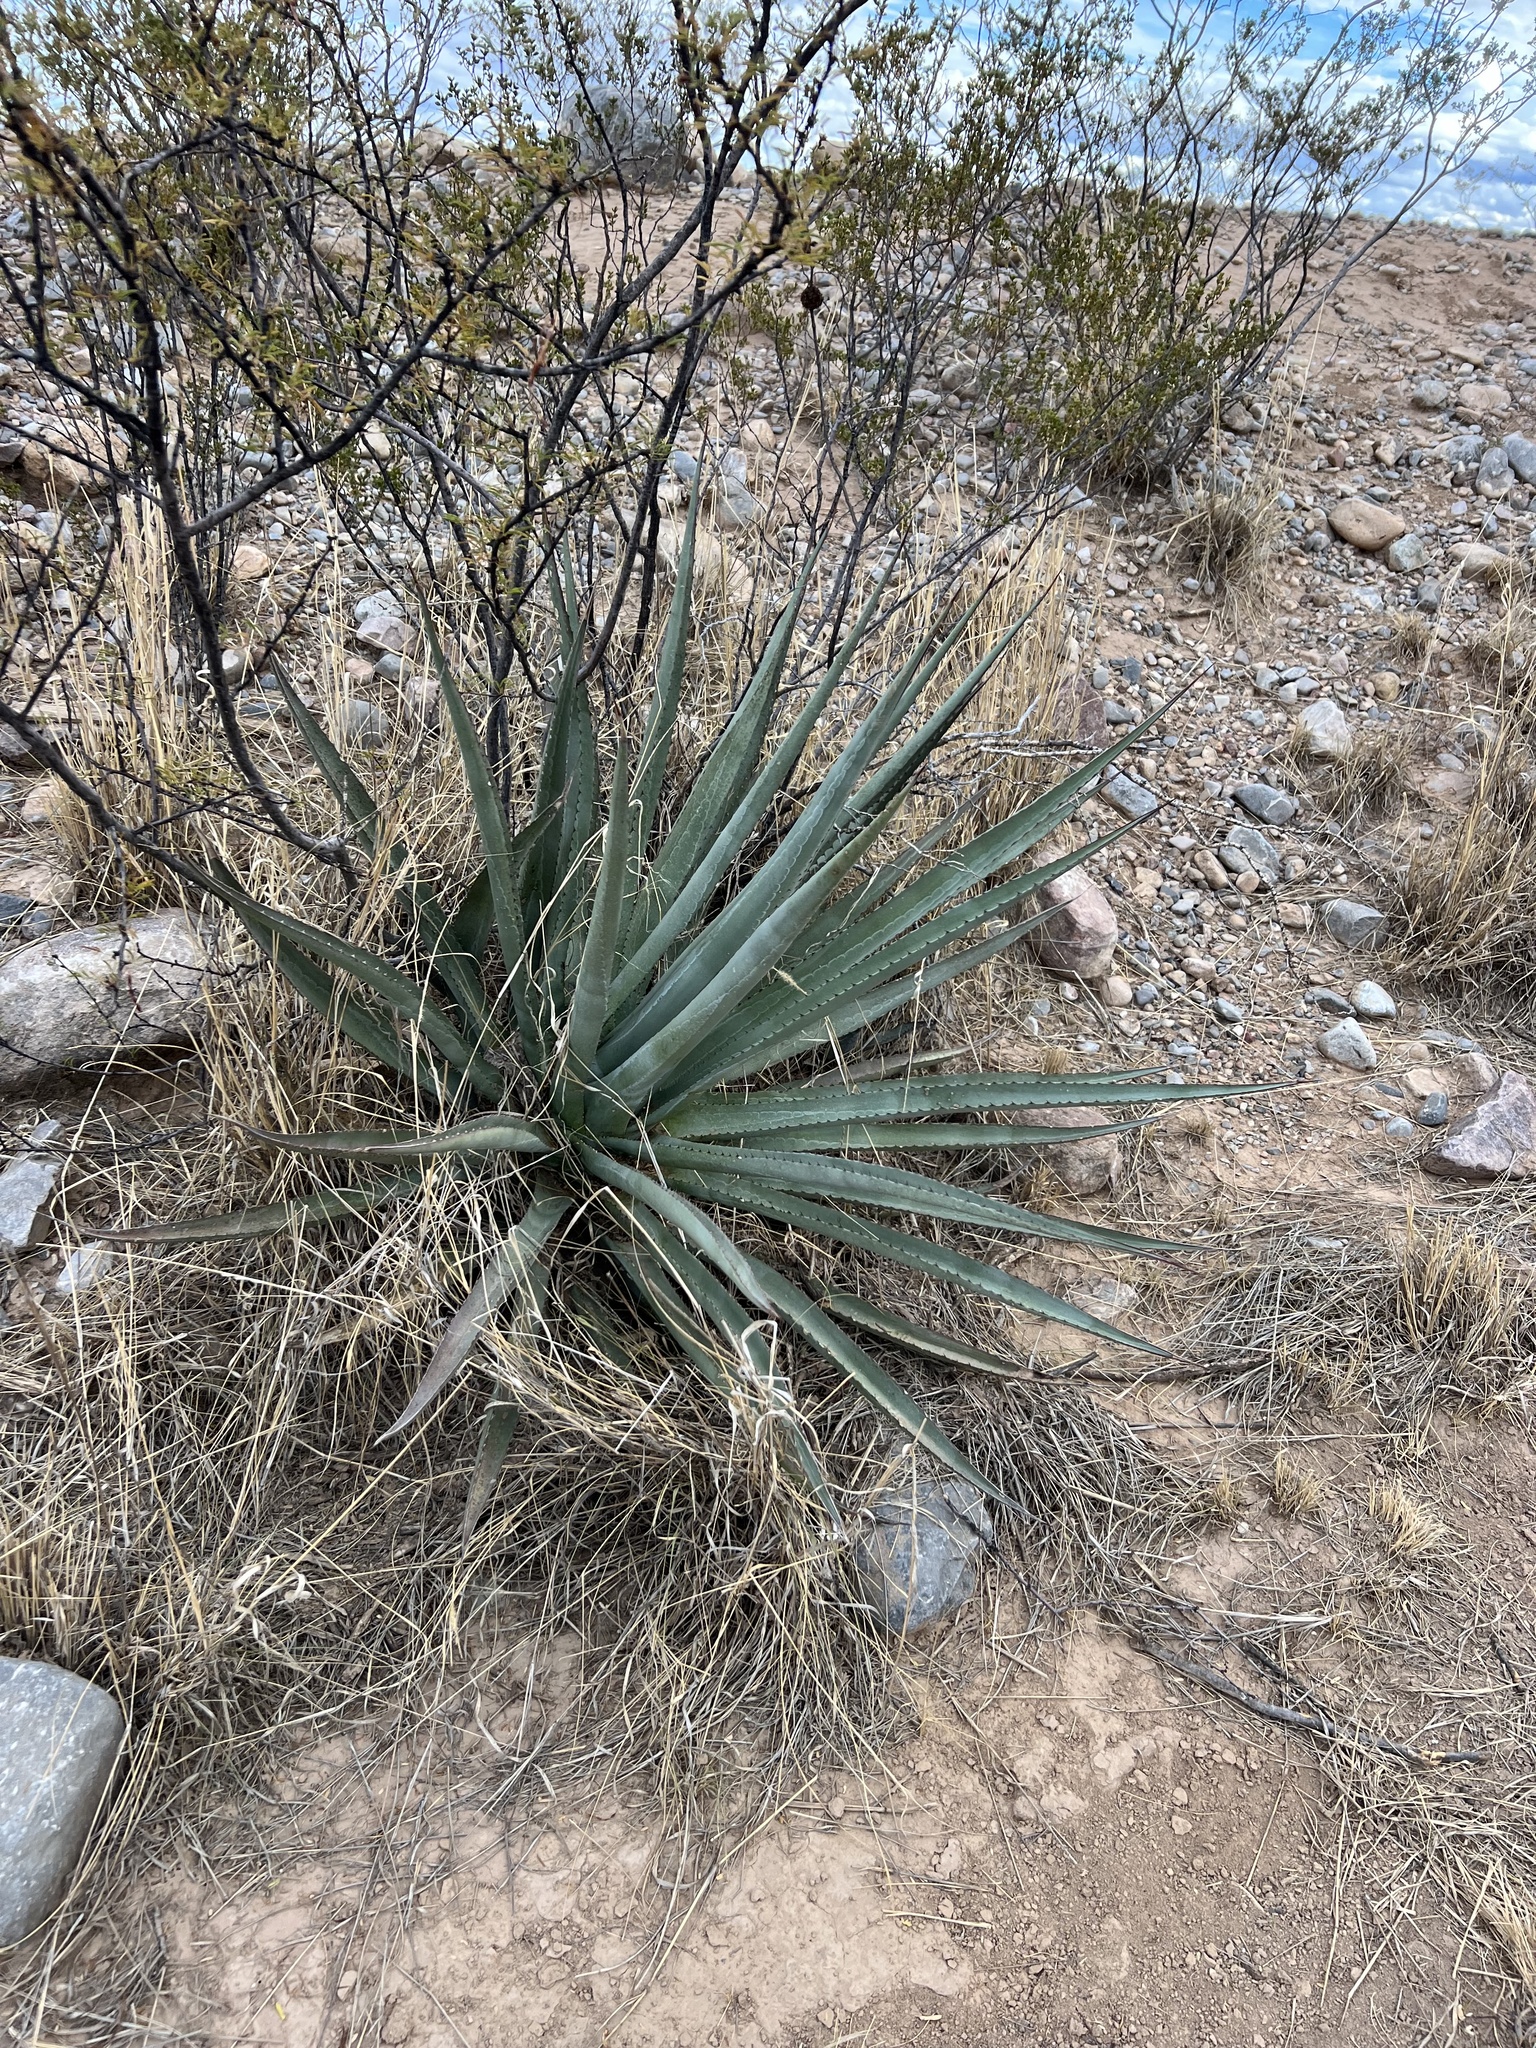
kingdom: Plantae
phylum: Tracheophyta
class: Liliopsida
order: Asparagales
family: Asparagaceae
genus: Agave
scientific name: Agave palmeri
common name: Palmer agave
